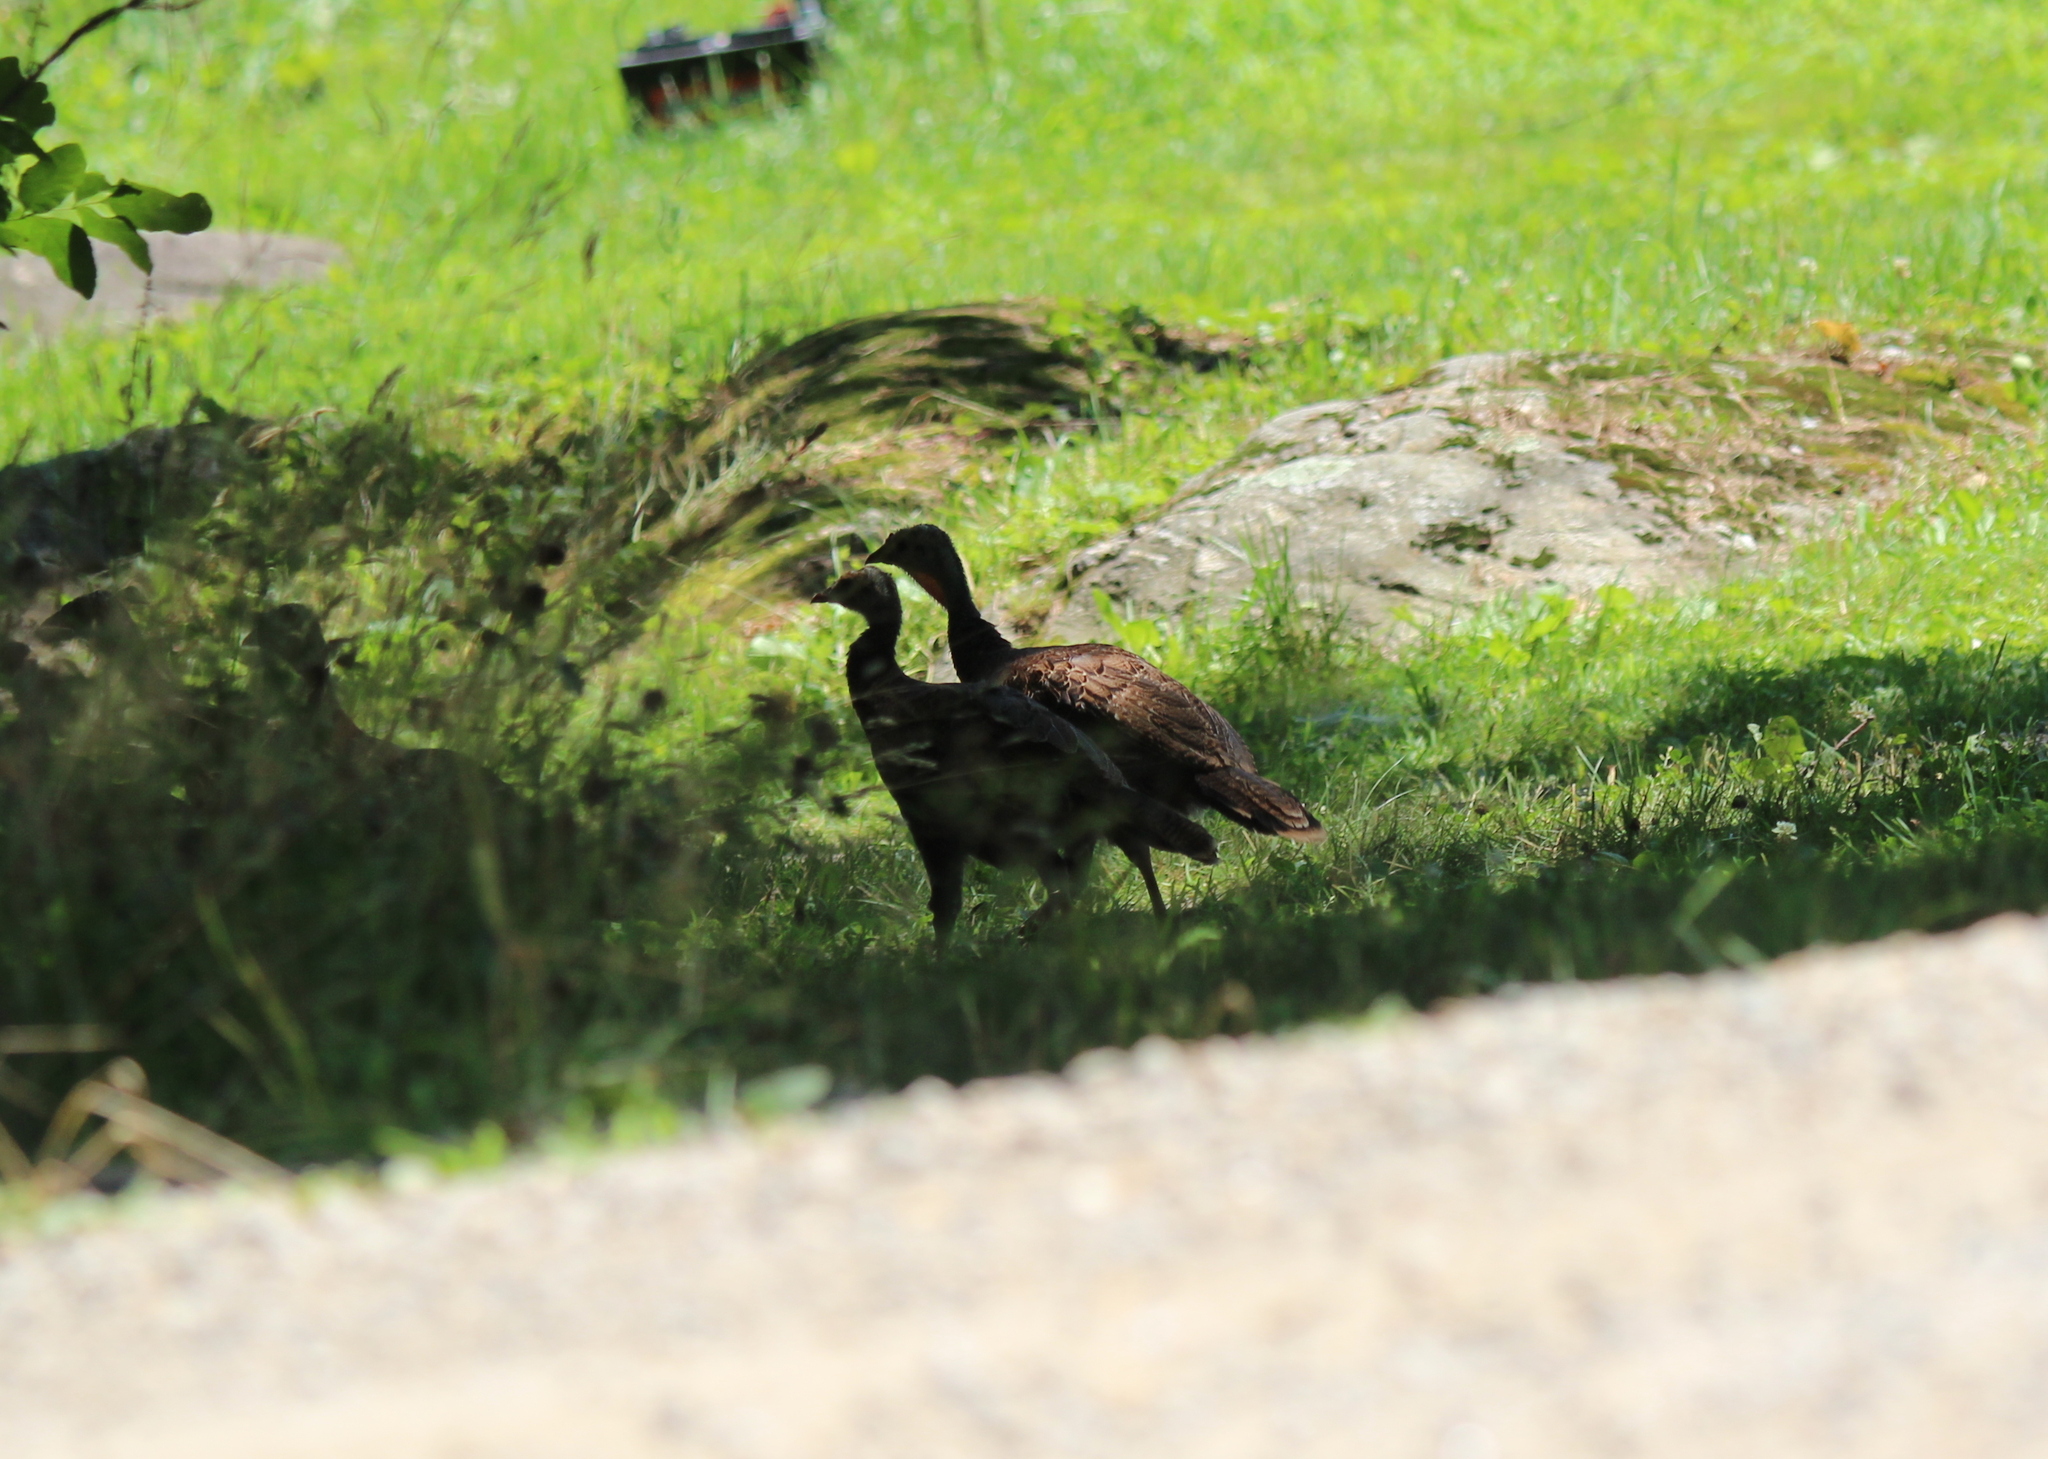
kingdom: Animalia
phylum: Chordata
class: Aves
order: Galliformes
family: Phasianidae
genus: Meleagris
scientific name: Meleagris gallopavo
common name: Wild turkey
